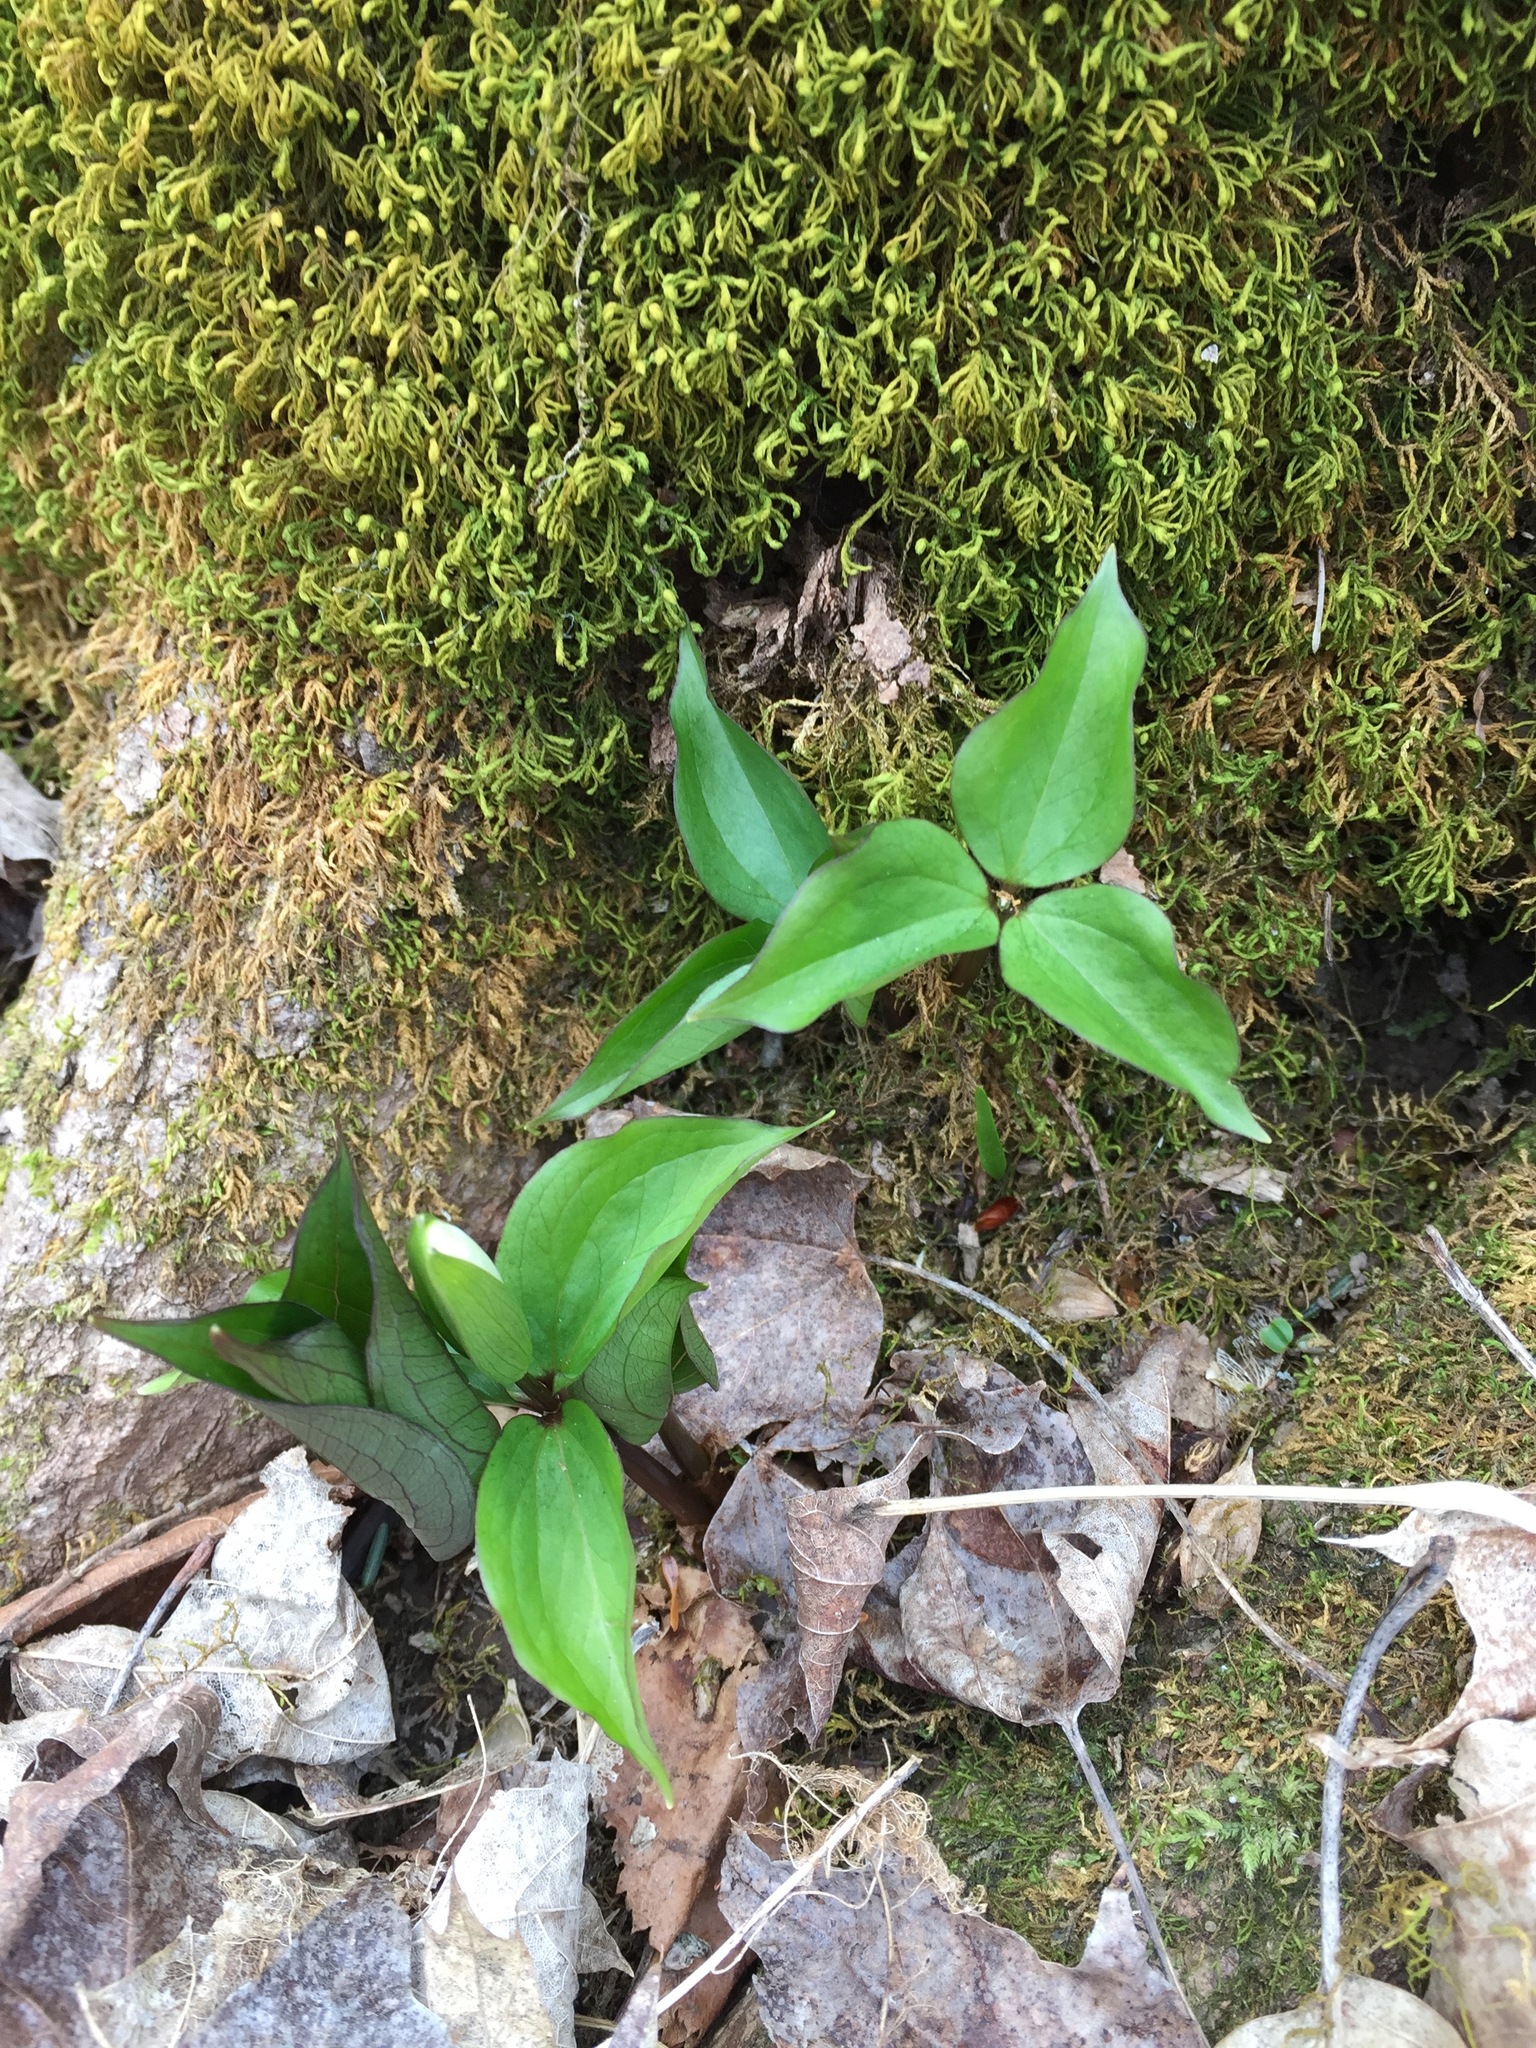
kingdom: Plantae
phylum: Tracheophyta
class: Liliopsida
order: Liliales
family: Melanthiaceae
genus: Trillium
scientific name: Trillium grandiflorum
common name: Great white trillium
